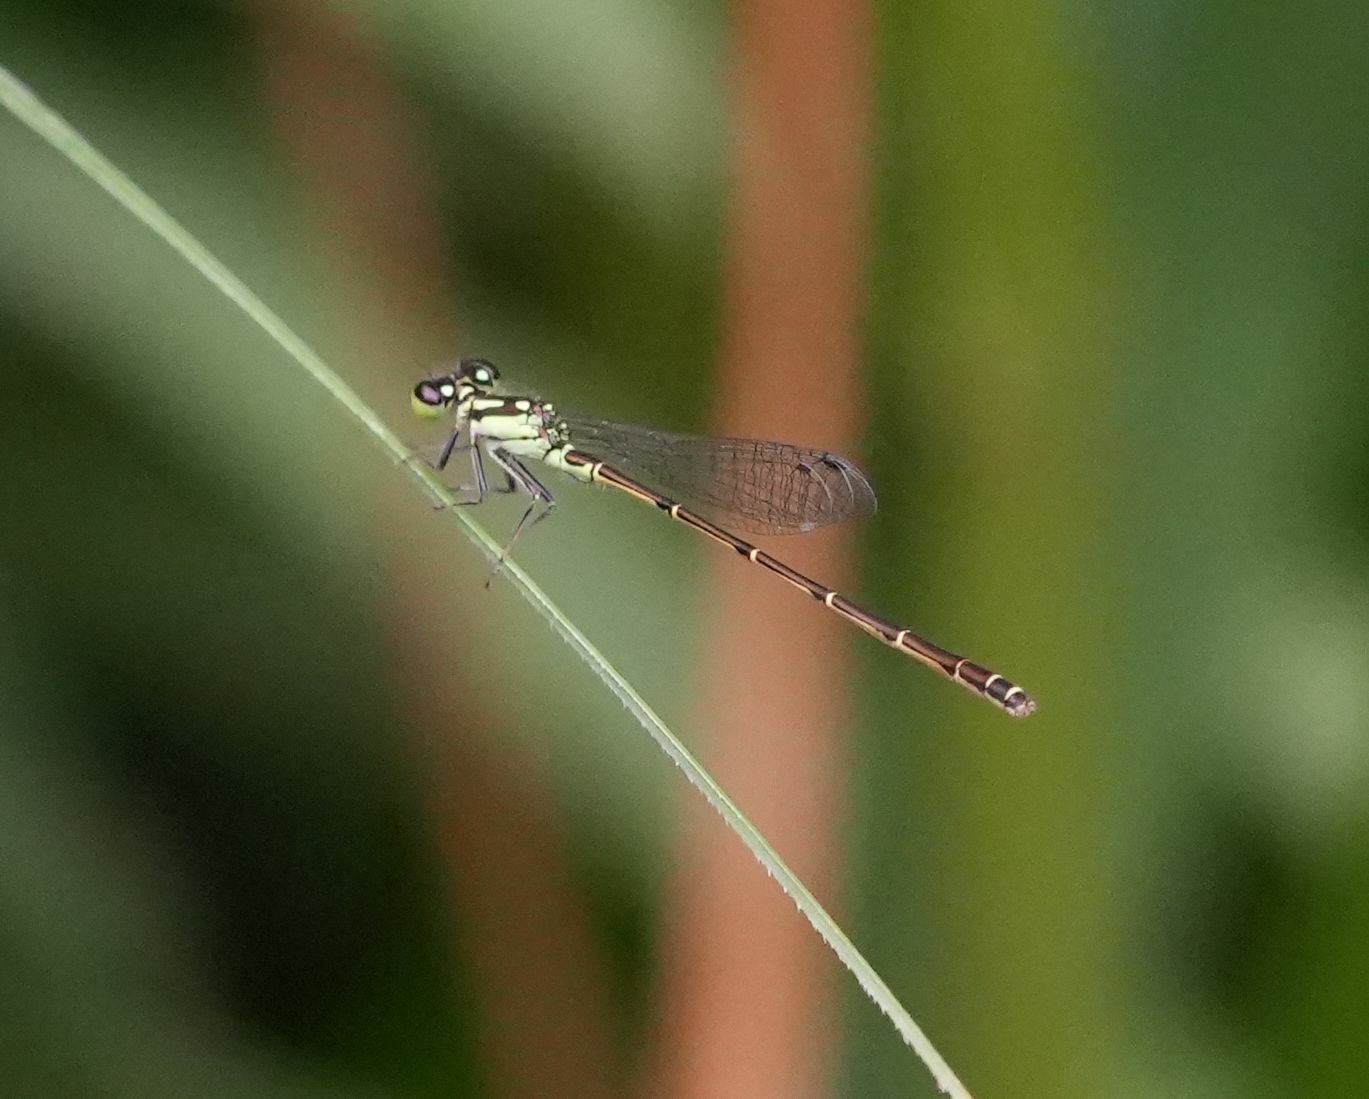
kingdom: Animalia
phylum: Arthropoda
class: Insecta
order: Odonata
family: Coenagrionidae
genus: Ischnura
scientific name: Ischnura posita
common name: Fragile forktail
